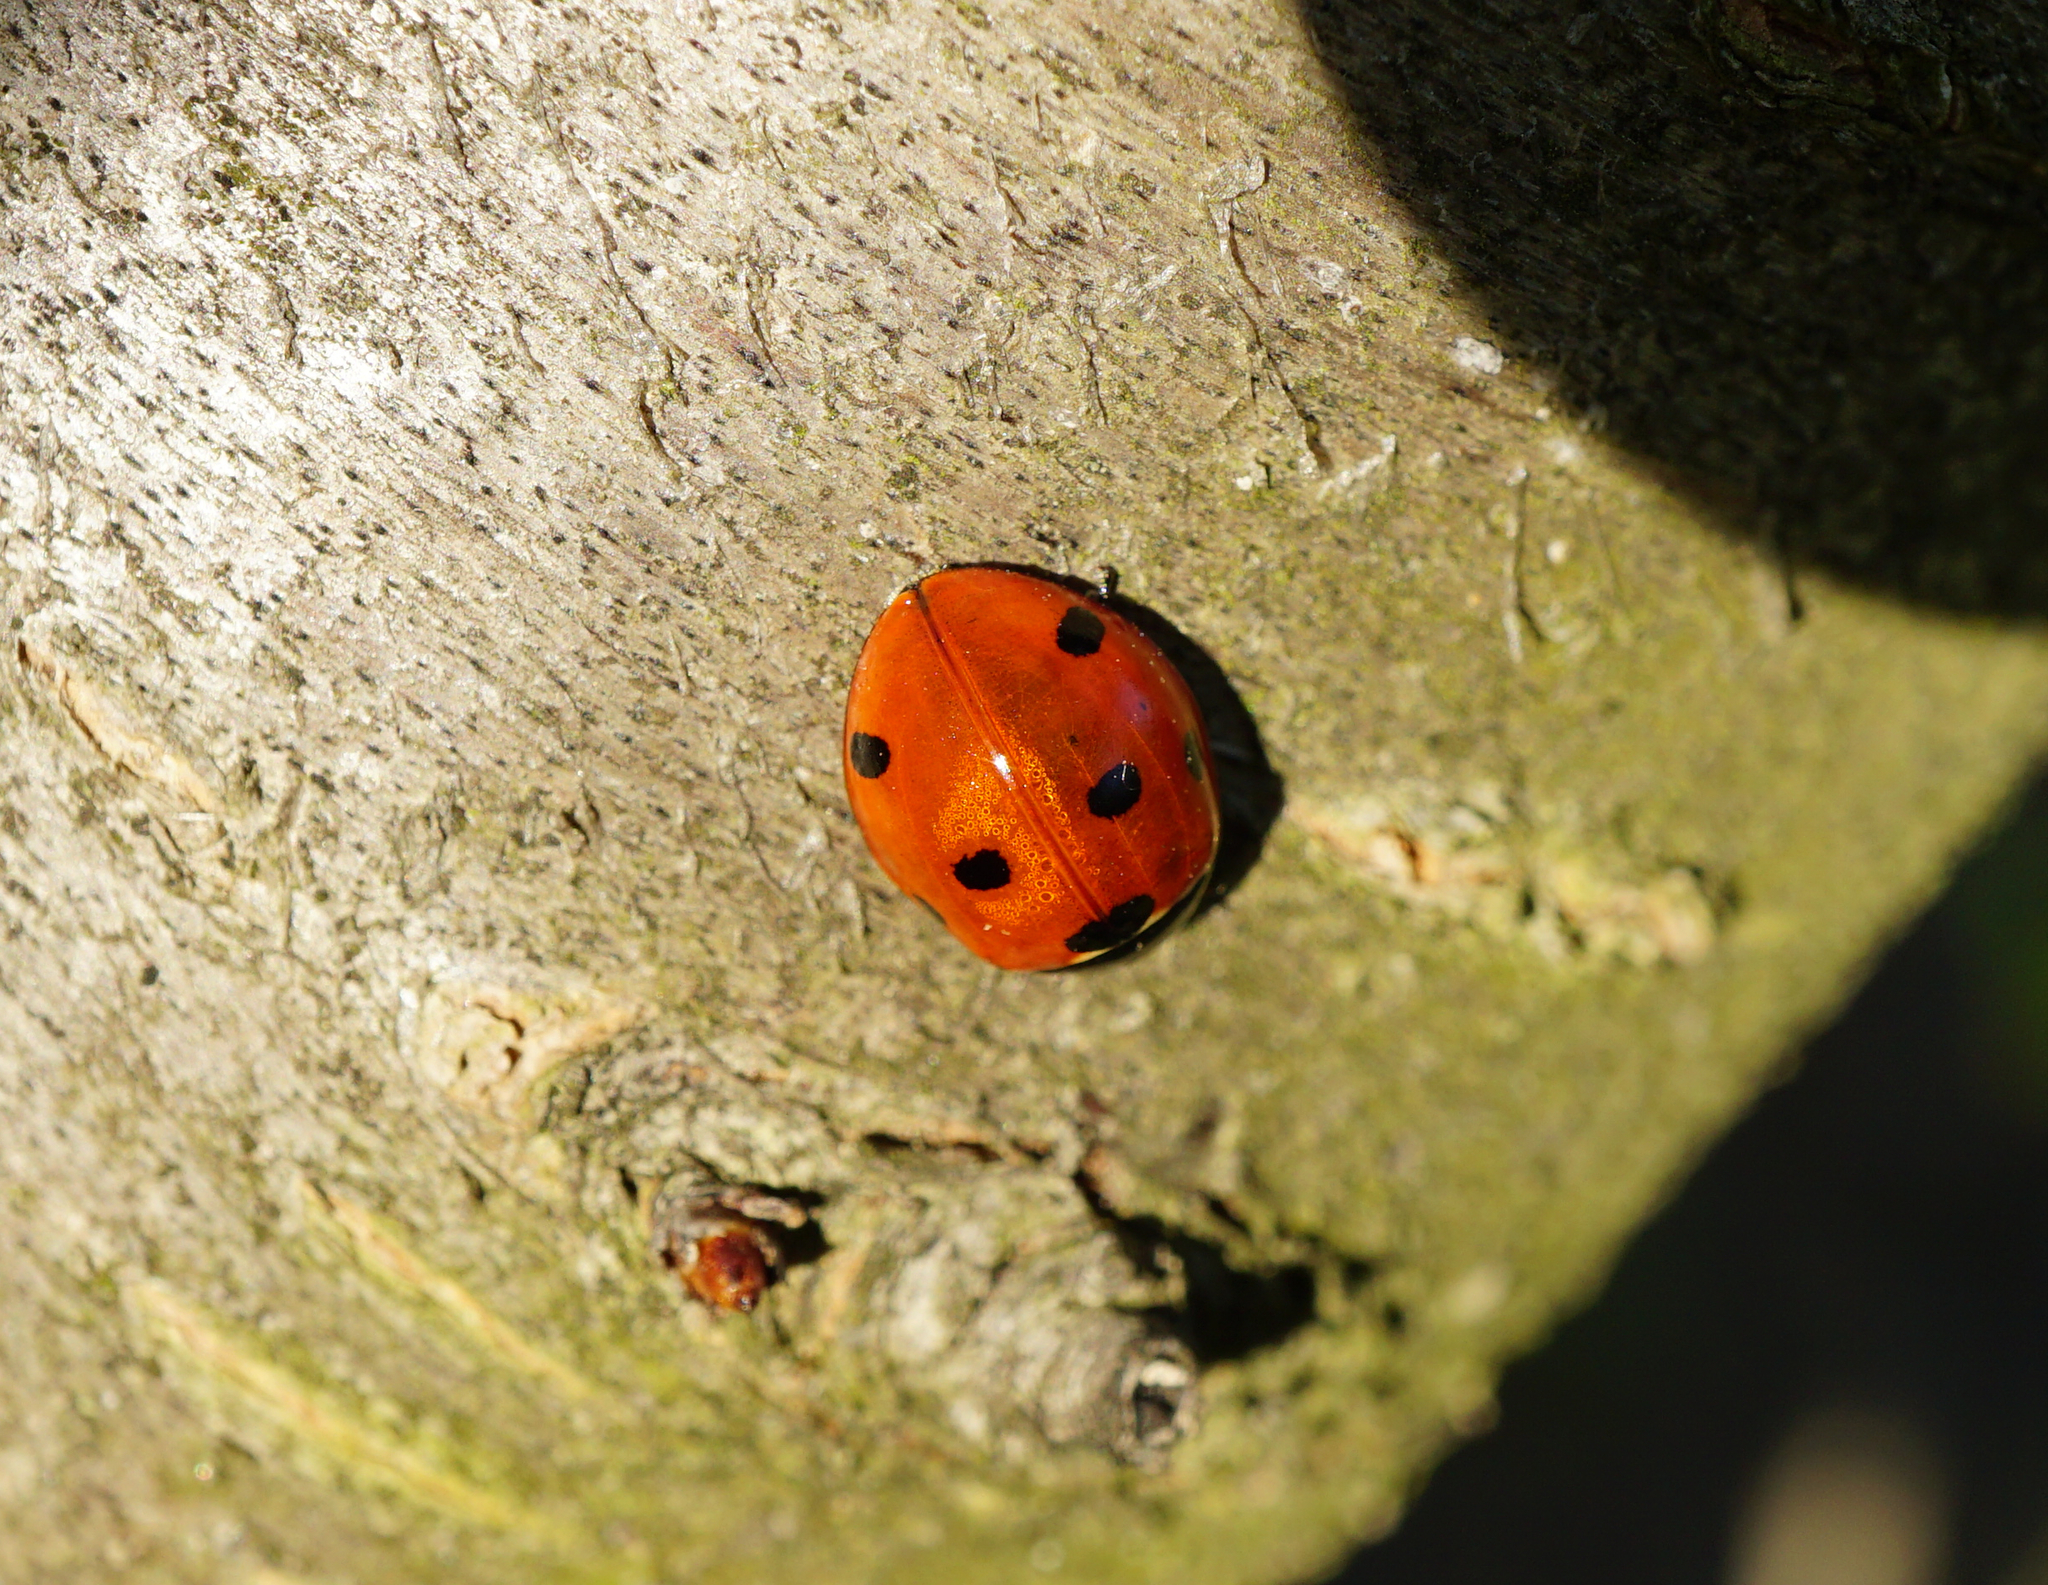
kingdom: Animalia
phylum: Arthropoda
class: Insecta
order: Coleoptera
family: Coccinellidae
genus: Coccinella
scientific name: Coccinella septempunctata
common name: Sevenspotted lady beetle
